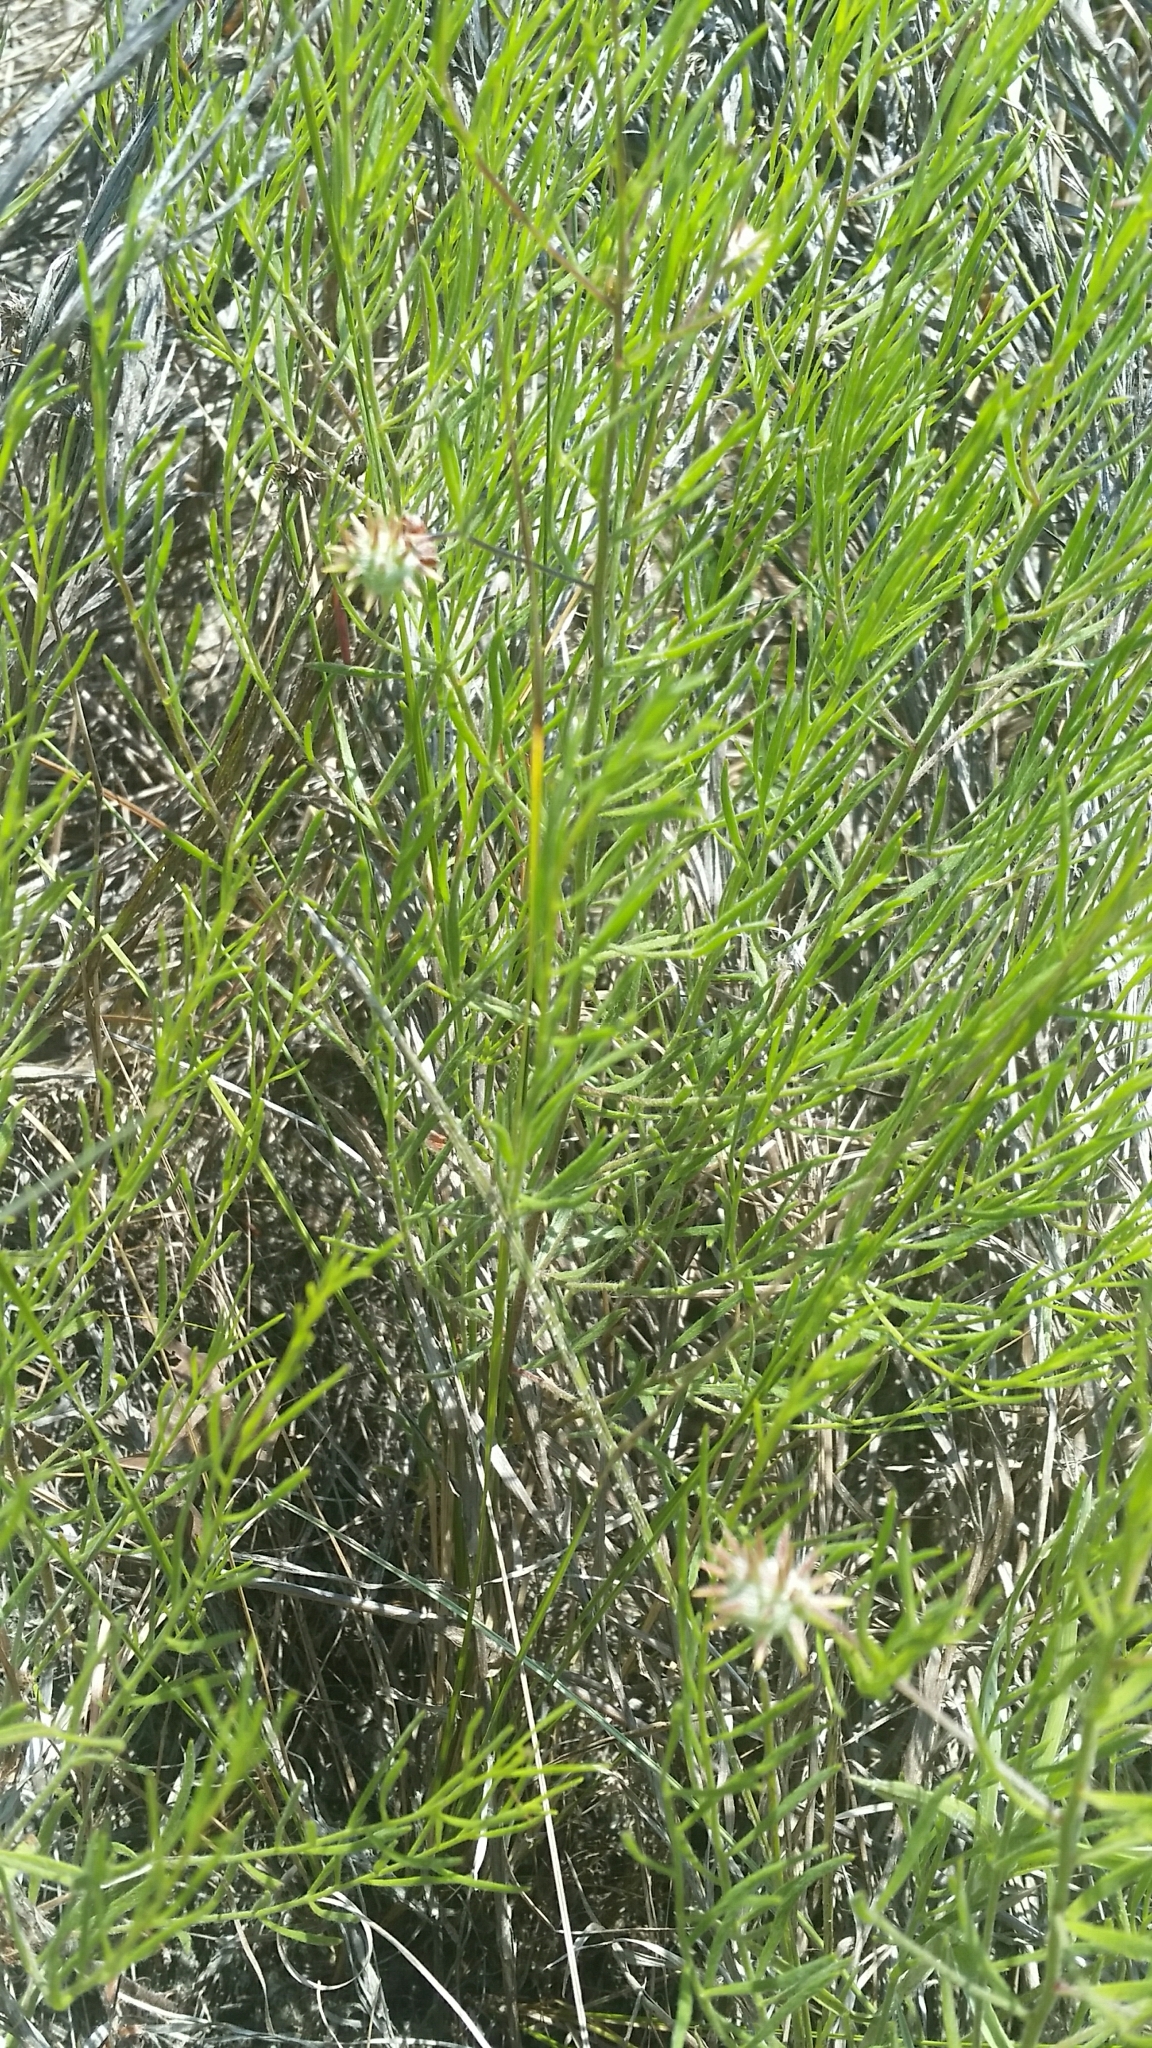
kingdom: Plantae
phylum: Tracheophyta
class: Magnoliopsida
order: Zygophyllales
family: Krameriaceae
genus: Krameria
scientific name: Krameria lanceolata
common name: Ratany
